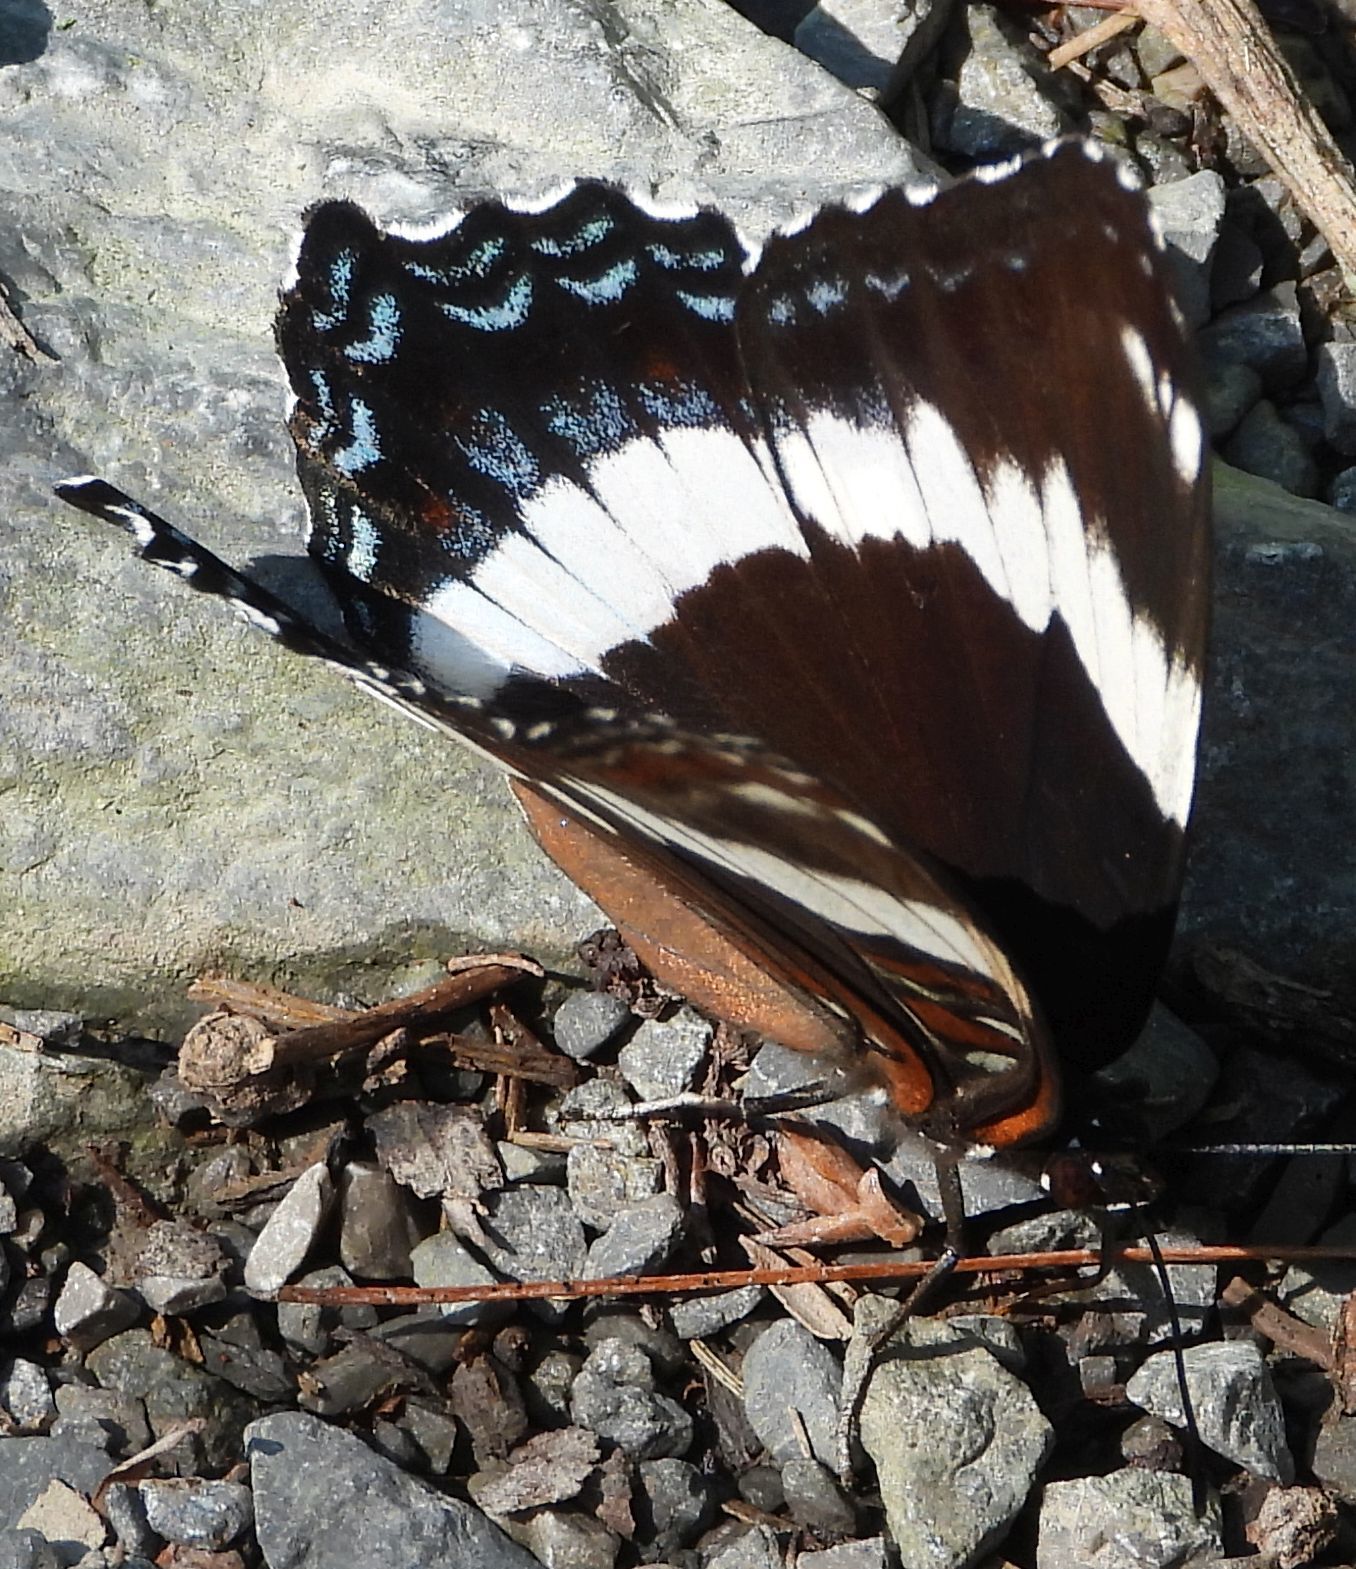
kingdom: Animalia
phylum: Arthropoda
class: Insecta
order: Lepidoptera
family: Nymphalidae
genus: Limenitis
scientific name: Limenitis arthemis
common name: Red-spotted admiral
